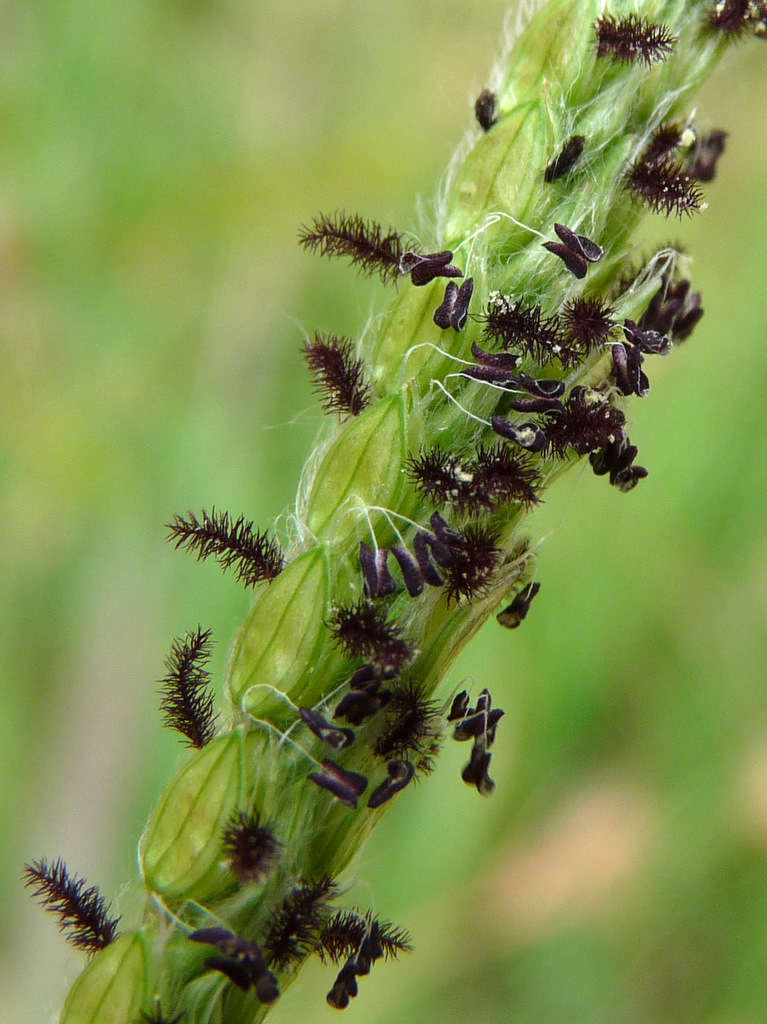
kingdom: Plantae
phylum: Tracheophyta
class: Liliopsida
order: Poales
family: Poaceae
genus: Paspalum
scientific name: Paspalum dilatatum
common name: Dallisgrass
